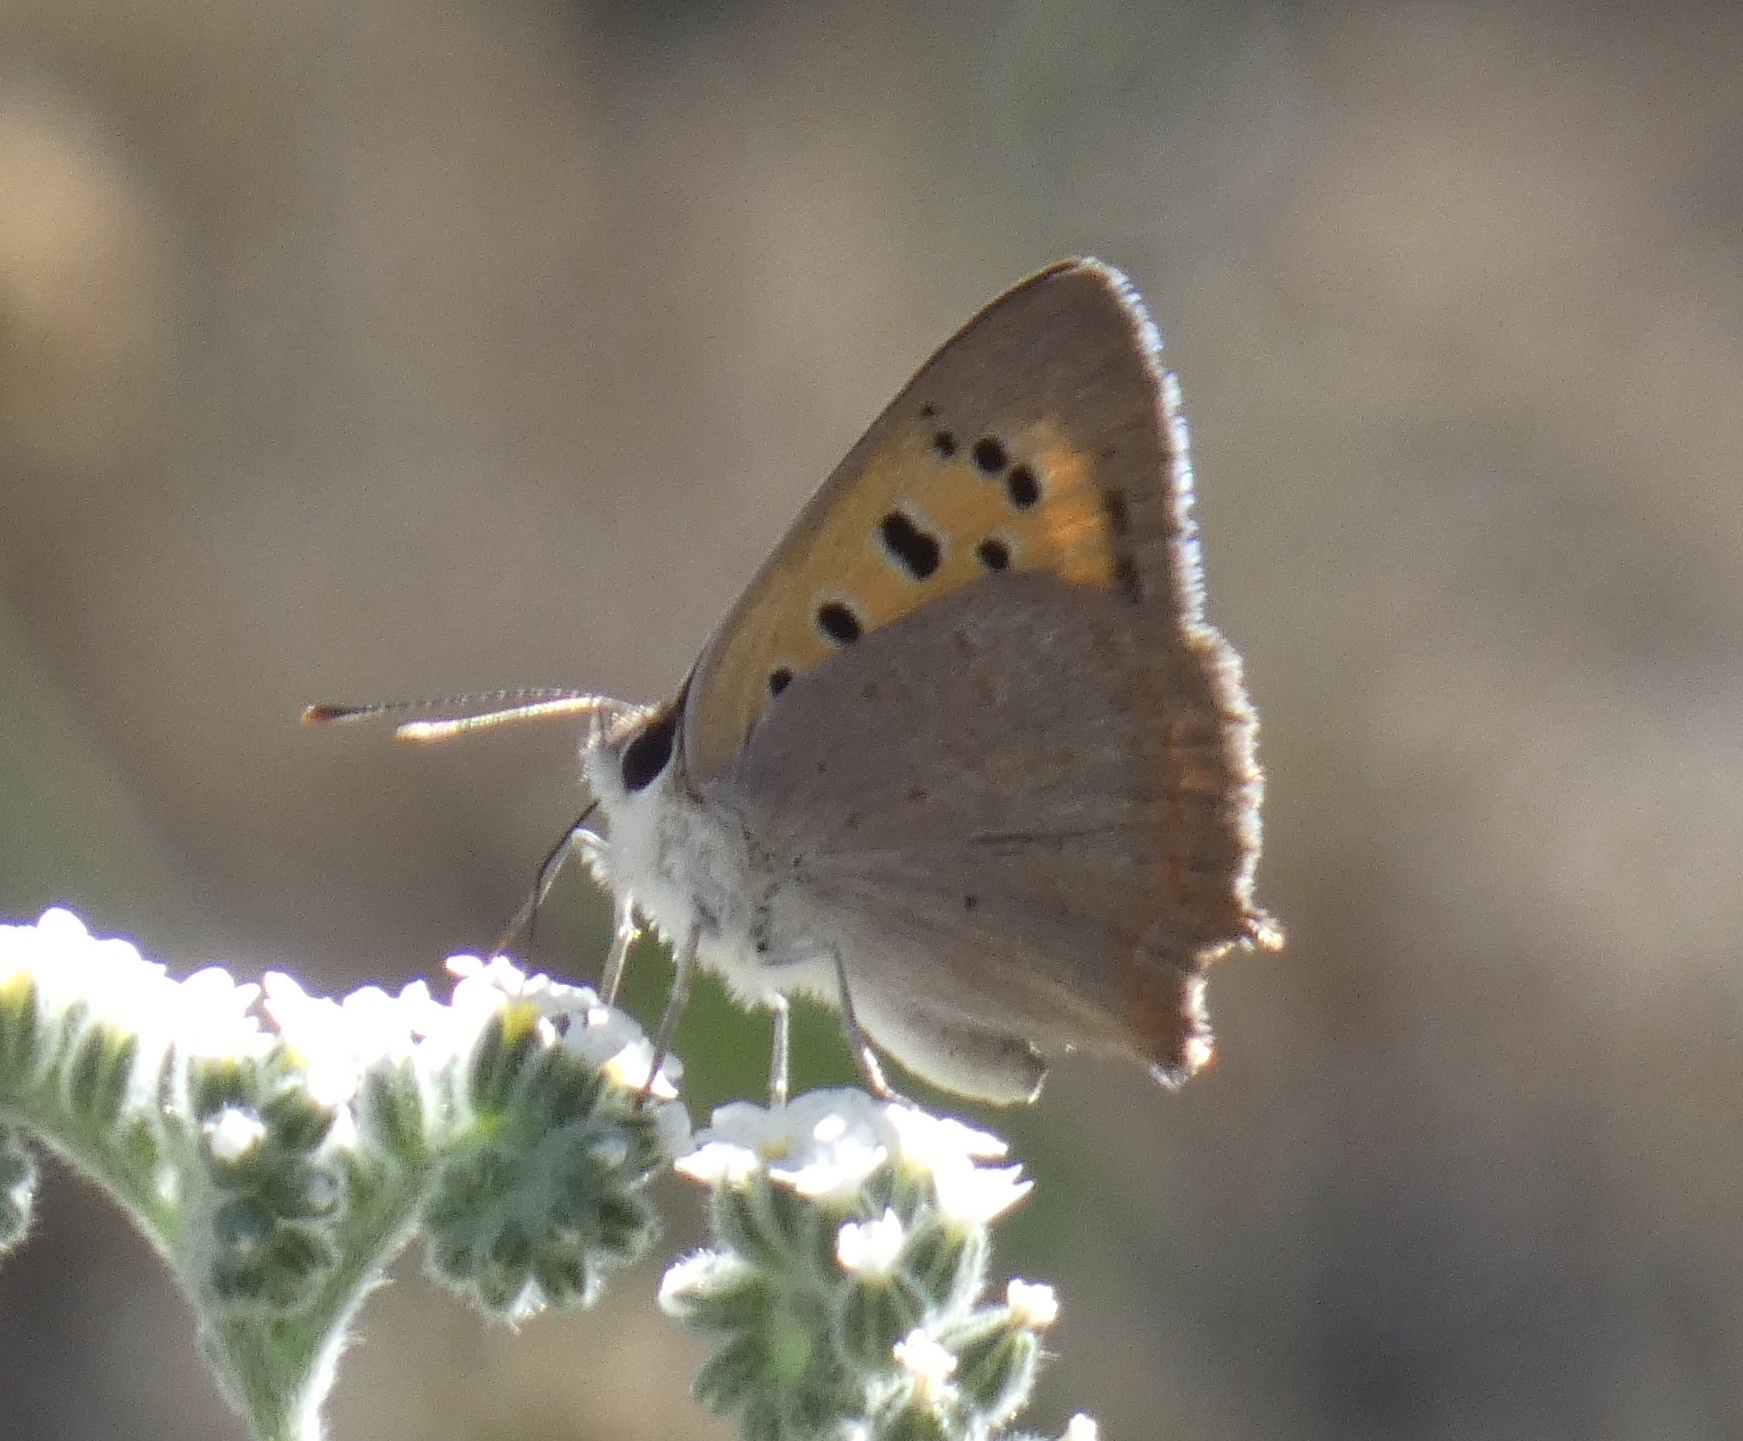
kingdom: Animalia
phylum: Arthropoda
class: Insecta
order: Lepidoptera
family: Lycaenidae
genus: Lycaena
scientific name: Lycaena phlaeas
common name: Small copper
